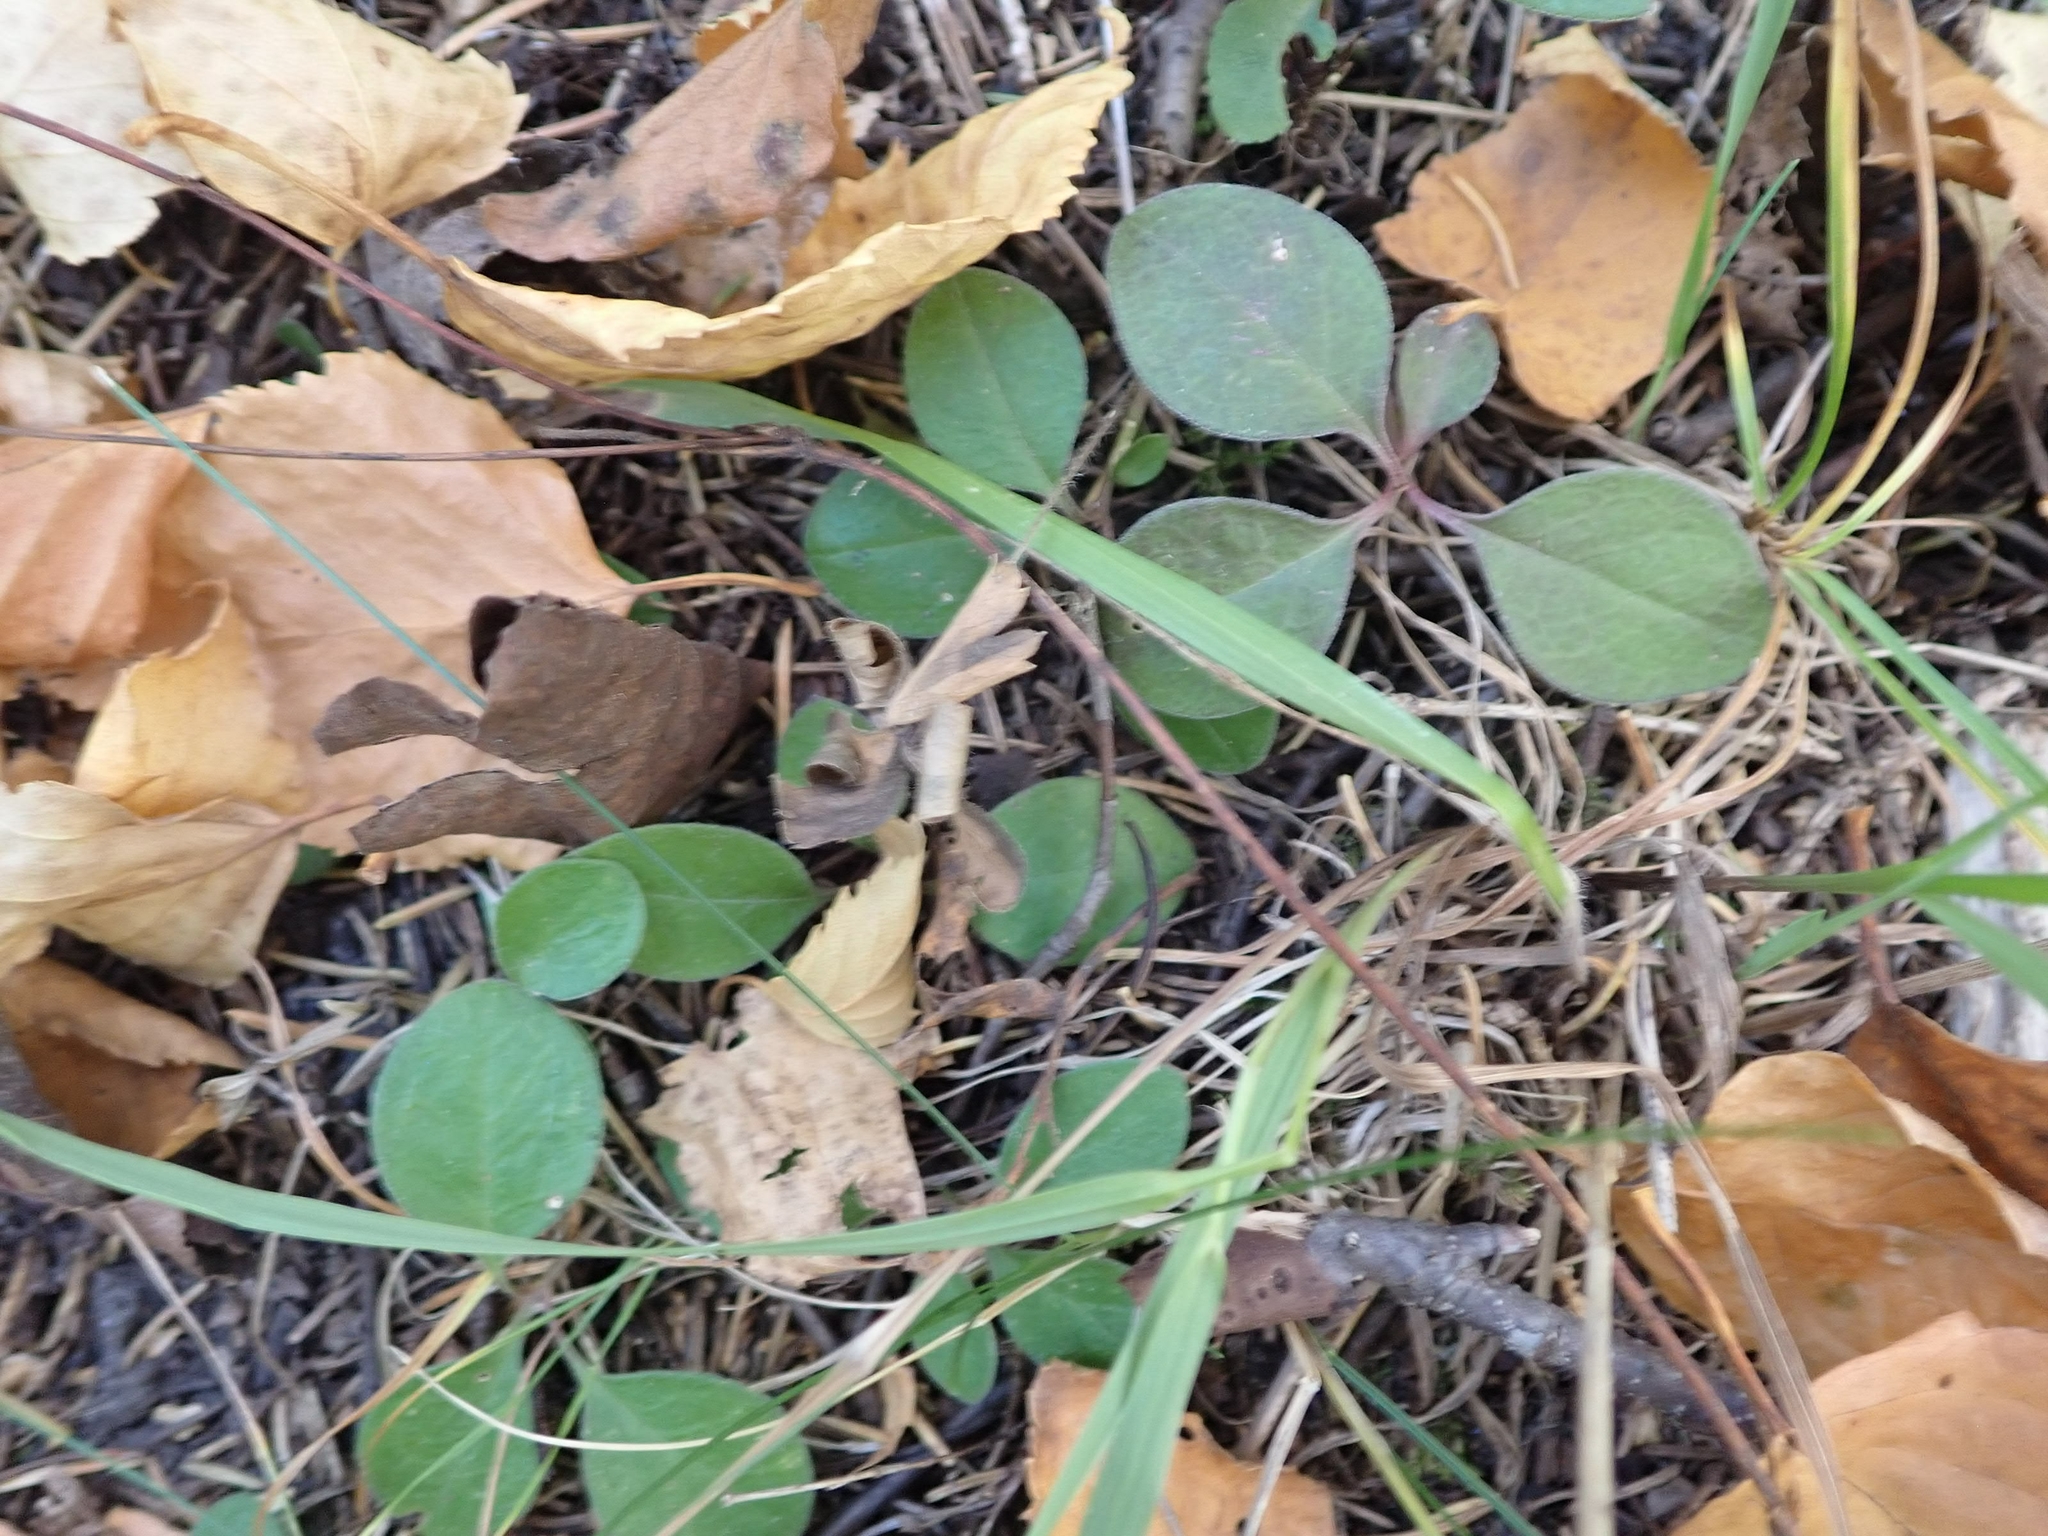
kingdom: Plantae
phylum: Tracheophyta
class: Magnoliopsida
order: Fabales
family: Polygalaceae
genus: Polygaloides
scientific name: Polygaloides paucifolia
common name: Bird-on-the-wing
